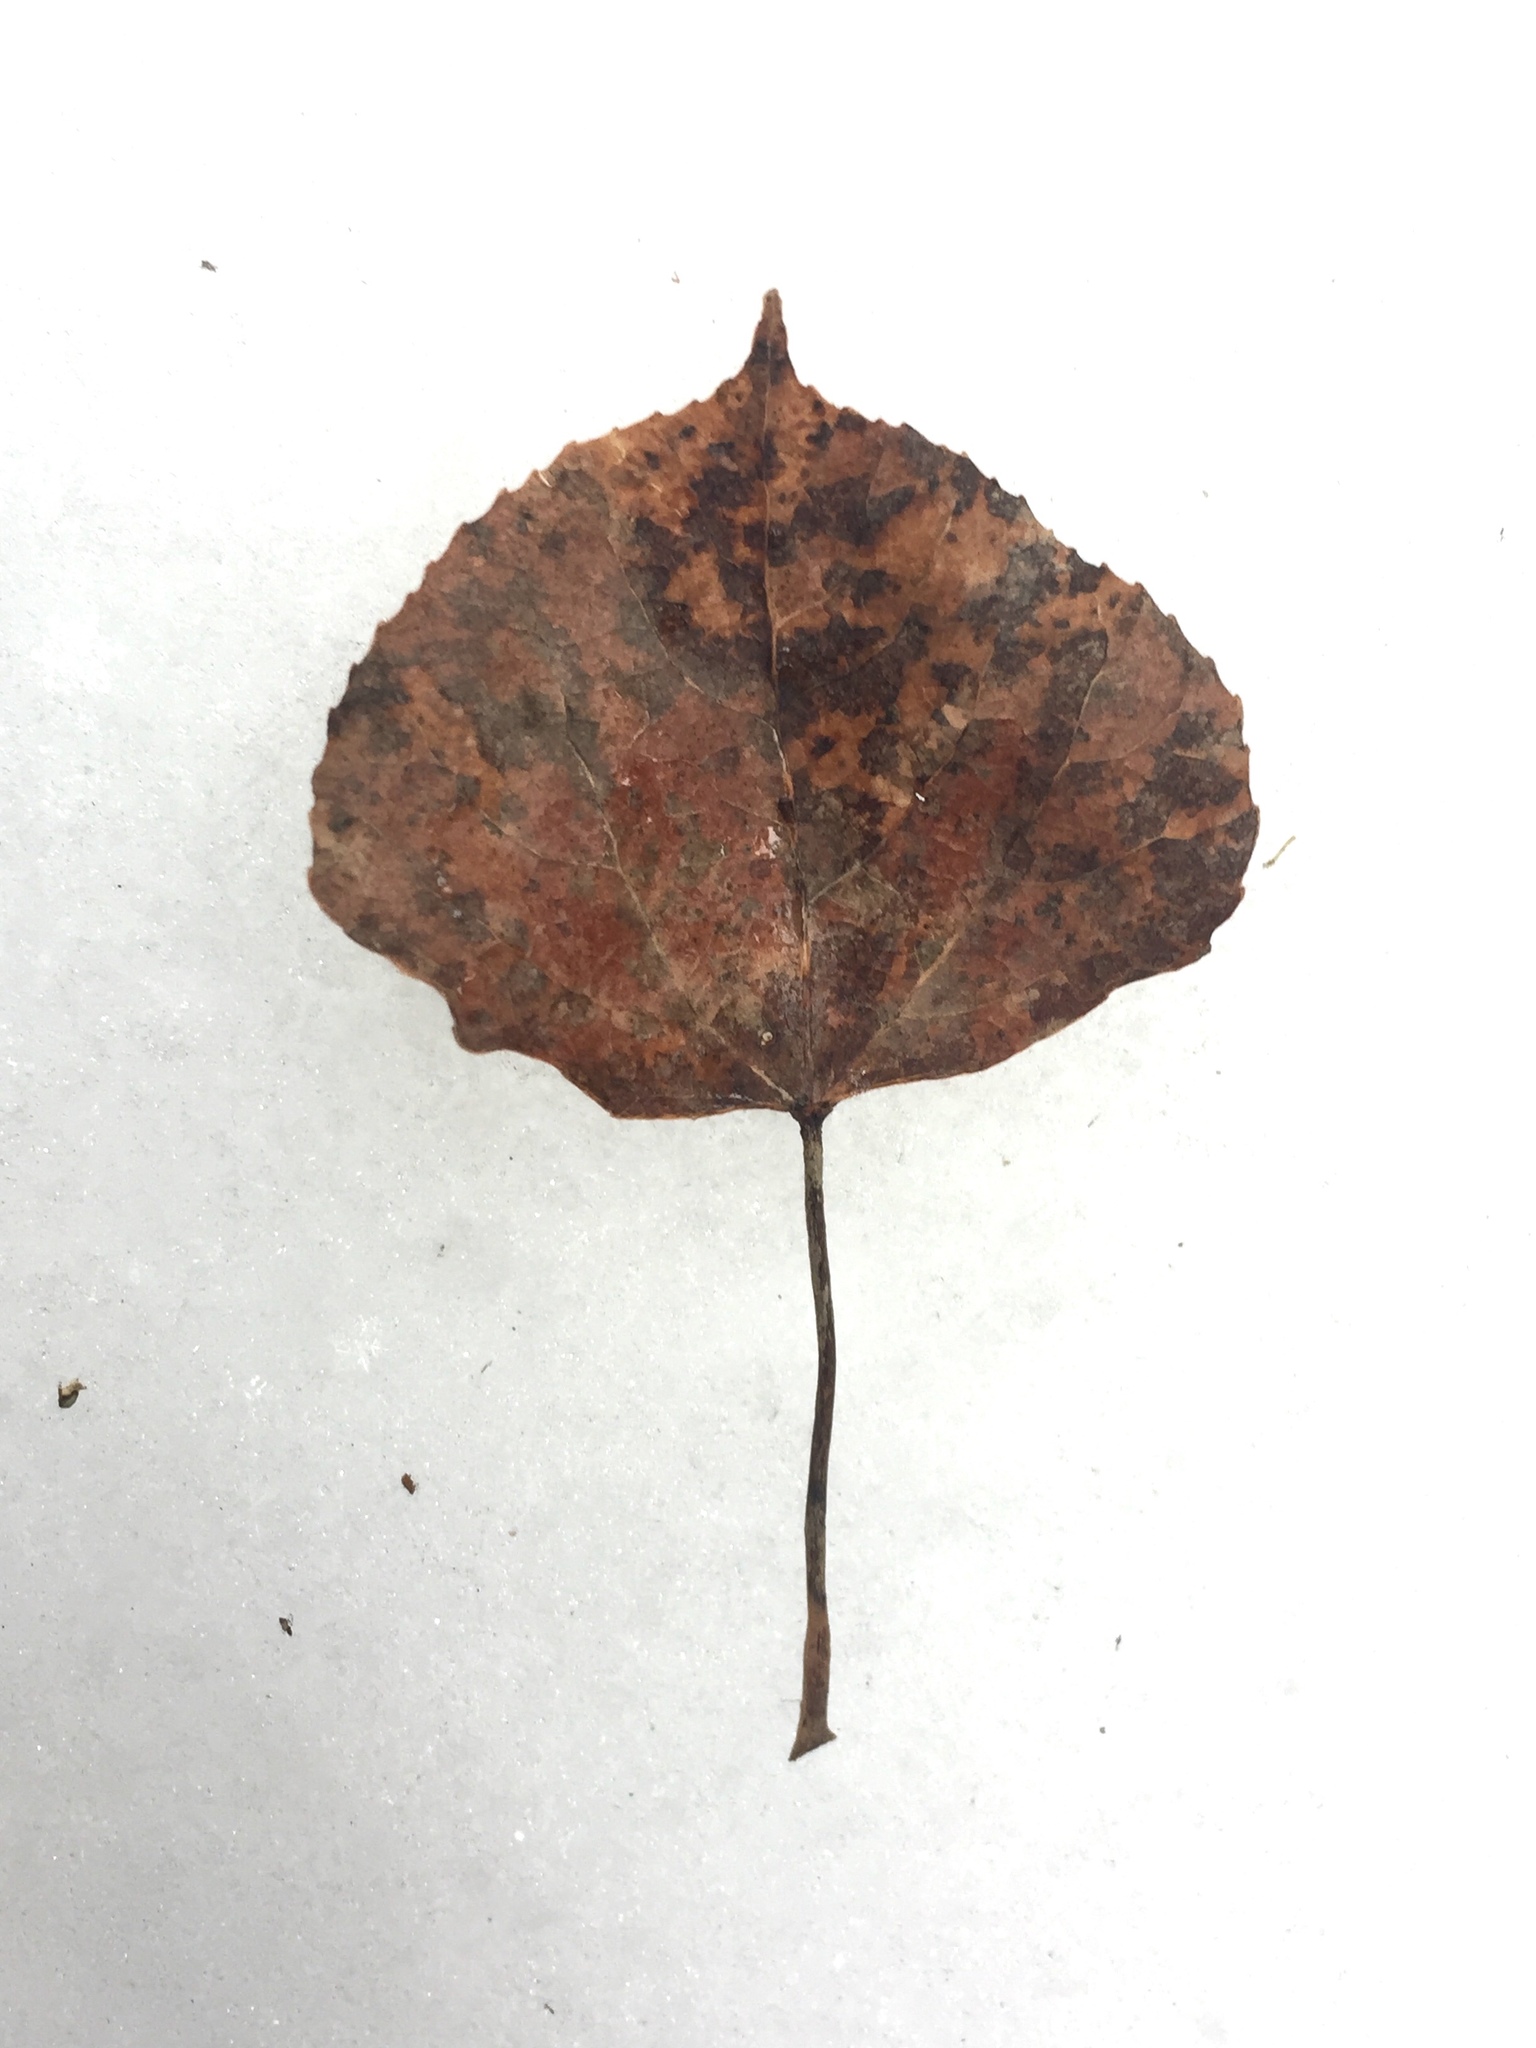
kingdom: Plantae
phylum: Tracheophyta
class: Magnoliopsida
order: Malpighiales
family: Salicaceae
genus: Populus
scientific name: Populus tremuloides
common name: Quaking aspen
